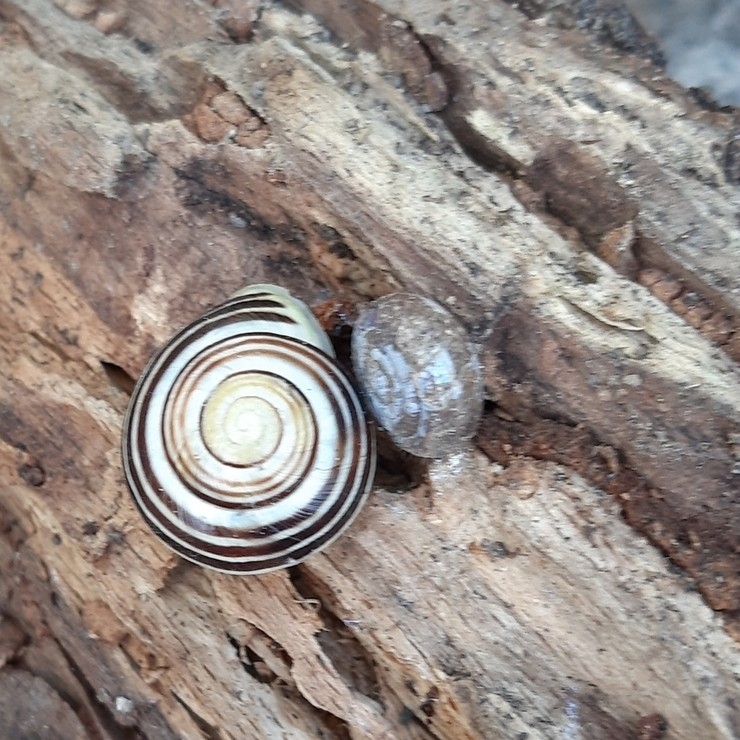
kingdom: Animalia
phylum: Mollusca
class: Gastropoda
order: Stylommatophora
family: Helicodontidae
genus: Helicodonta
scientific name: Helicodonta obvoluta
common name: Cheese snail
